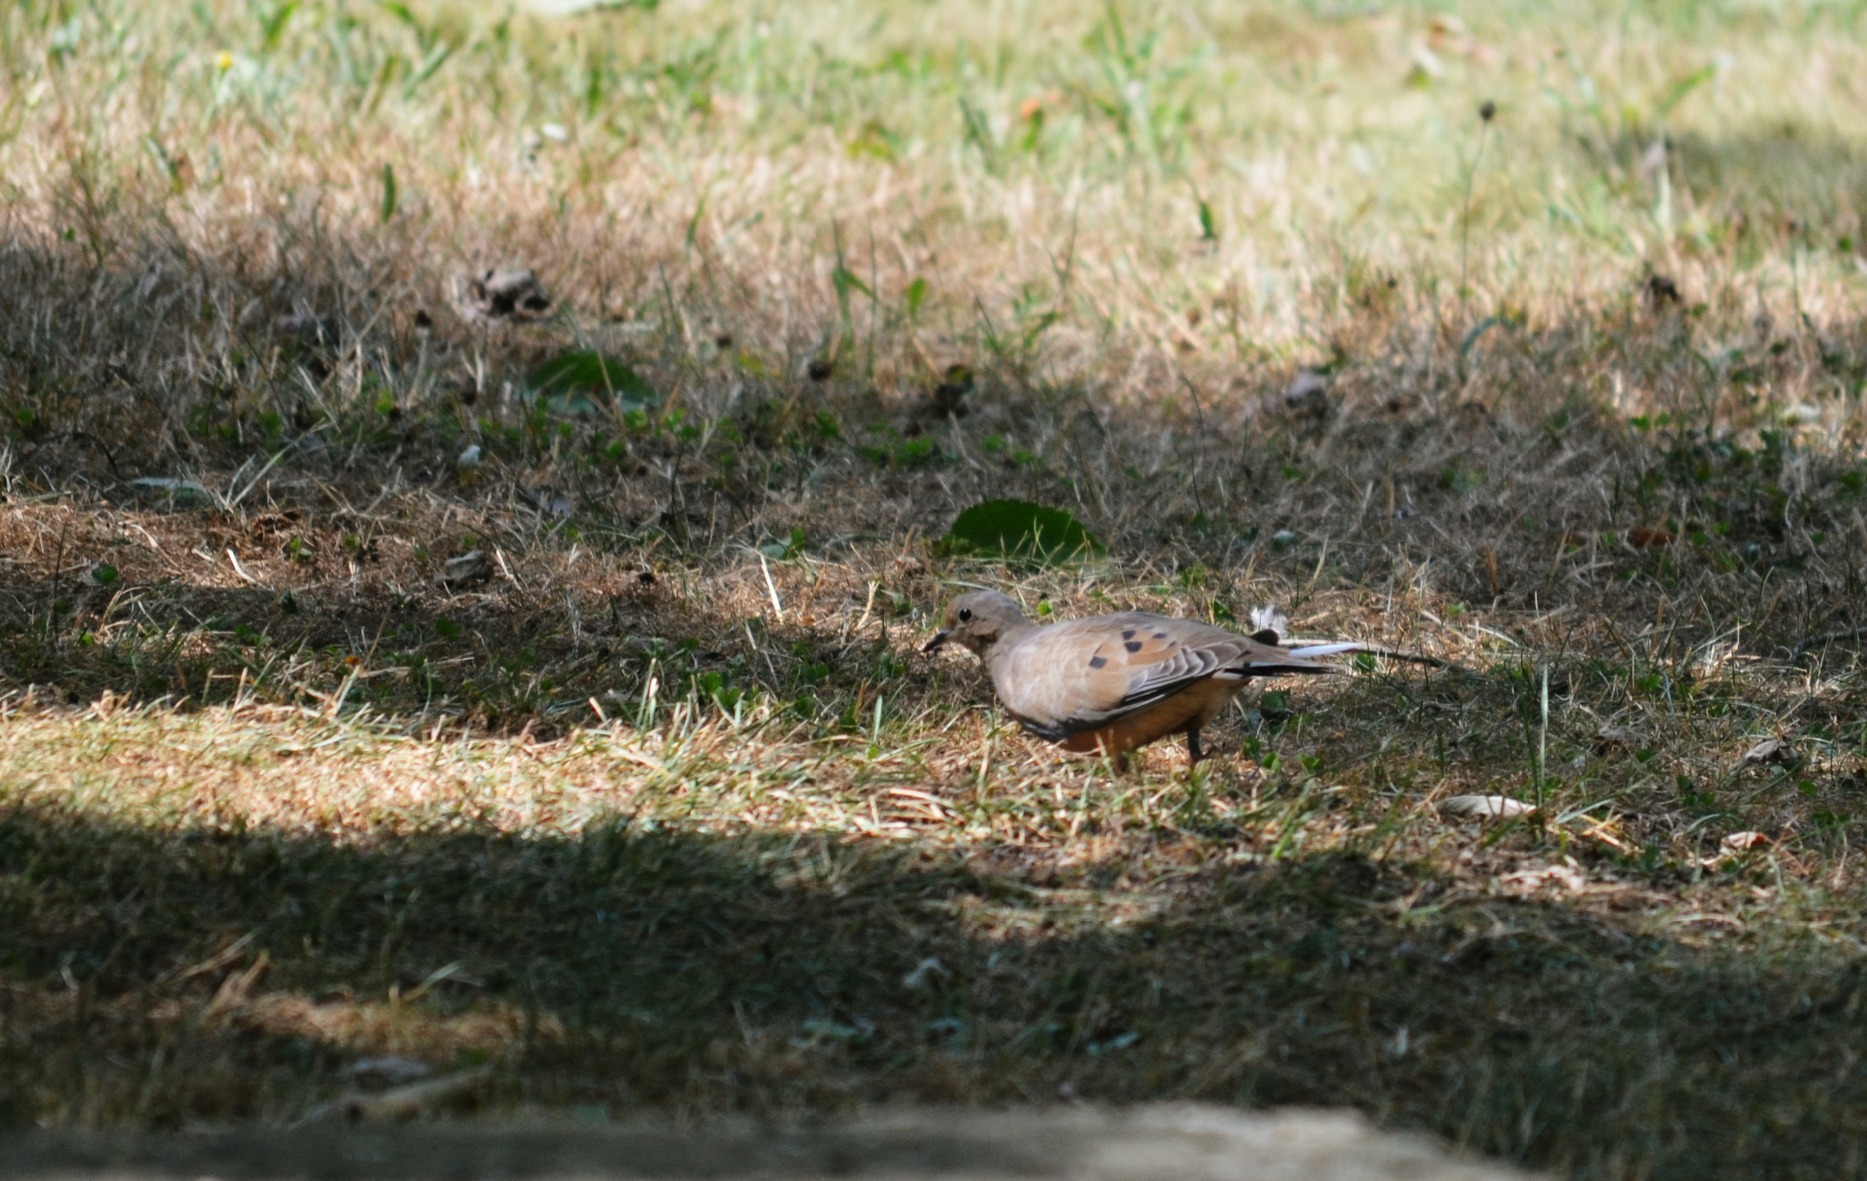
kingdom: Animalia
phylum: Chordata
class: Aves
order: Columbiformes
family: Columbidae
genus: Zenaida
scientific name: Zenaida macroura
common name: Mourning dove
